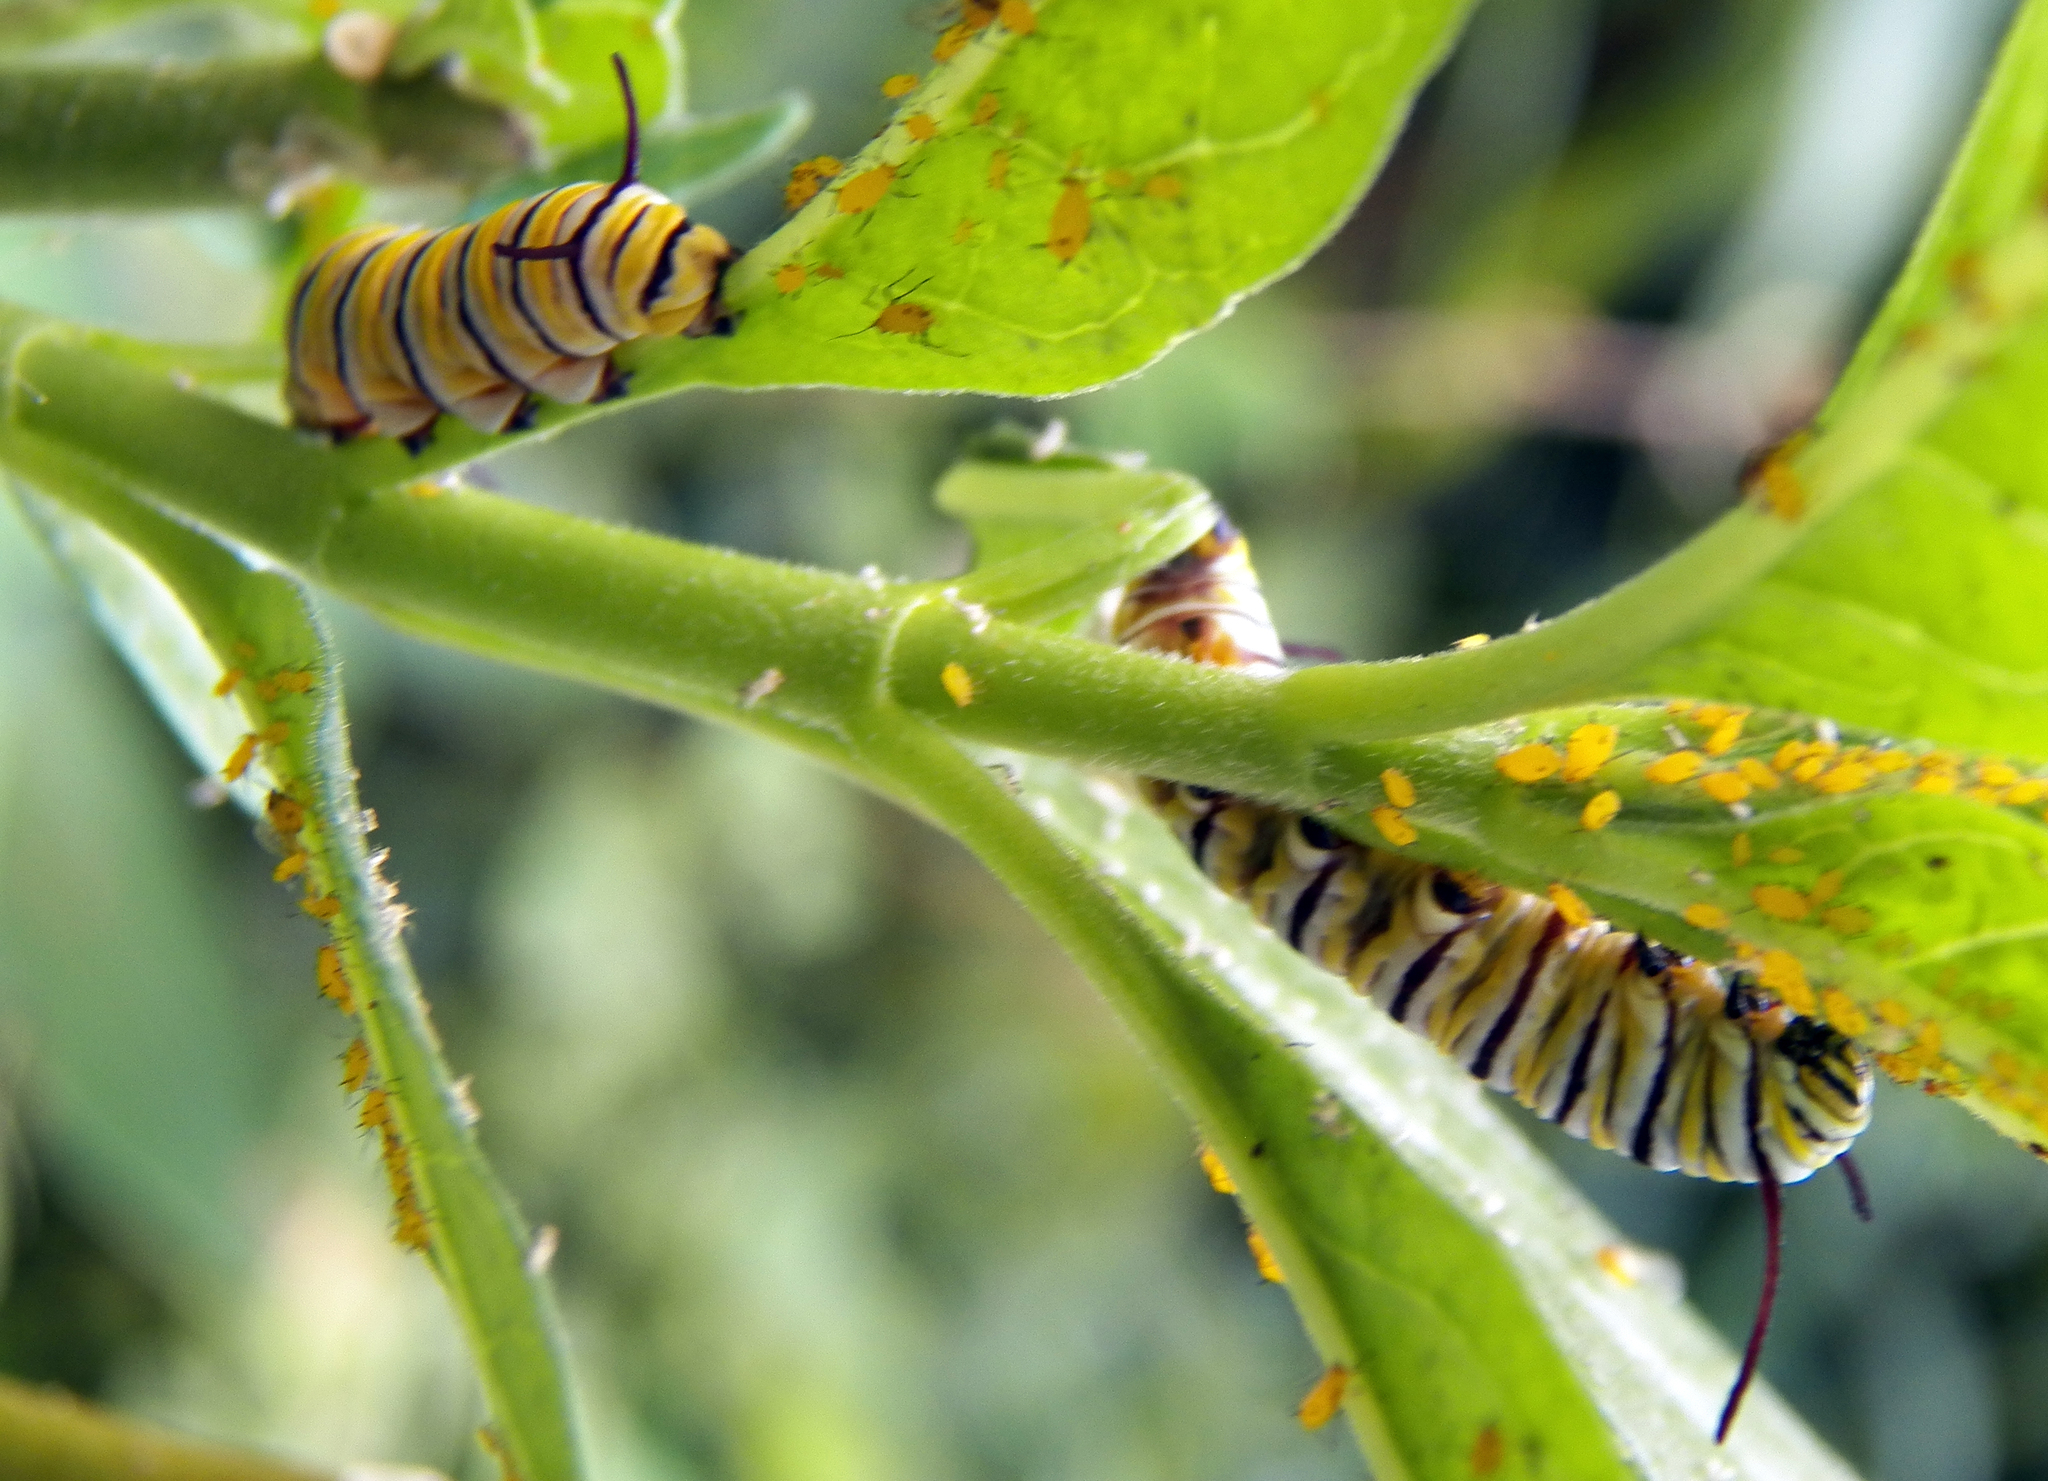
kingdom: Animalia
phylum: Arthropoda
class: Insecta
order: Lepidoptera
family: Nymphalidae
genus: Danaus
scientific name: Danaus plexippus
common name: Monarch
